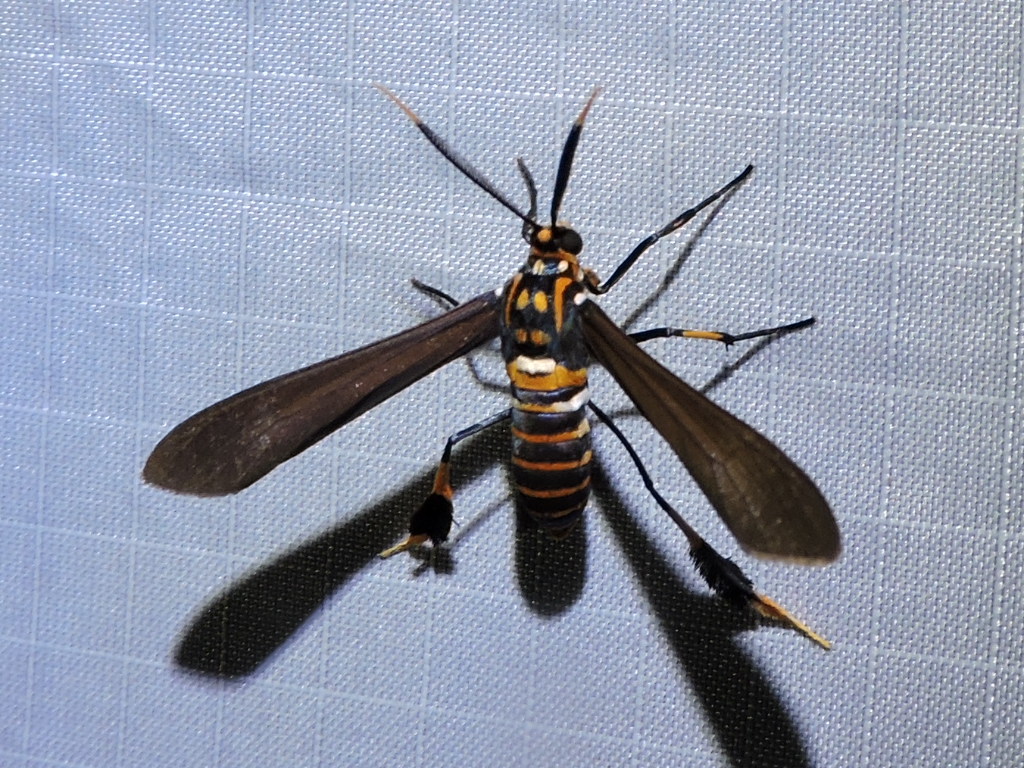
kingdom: Animalia
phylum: Arthropoda
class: Insecta
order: Lepidoptera
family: Erebidae
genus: Horama
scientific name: Horama panthalon
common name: Texas wasp moth
